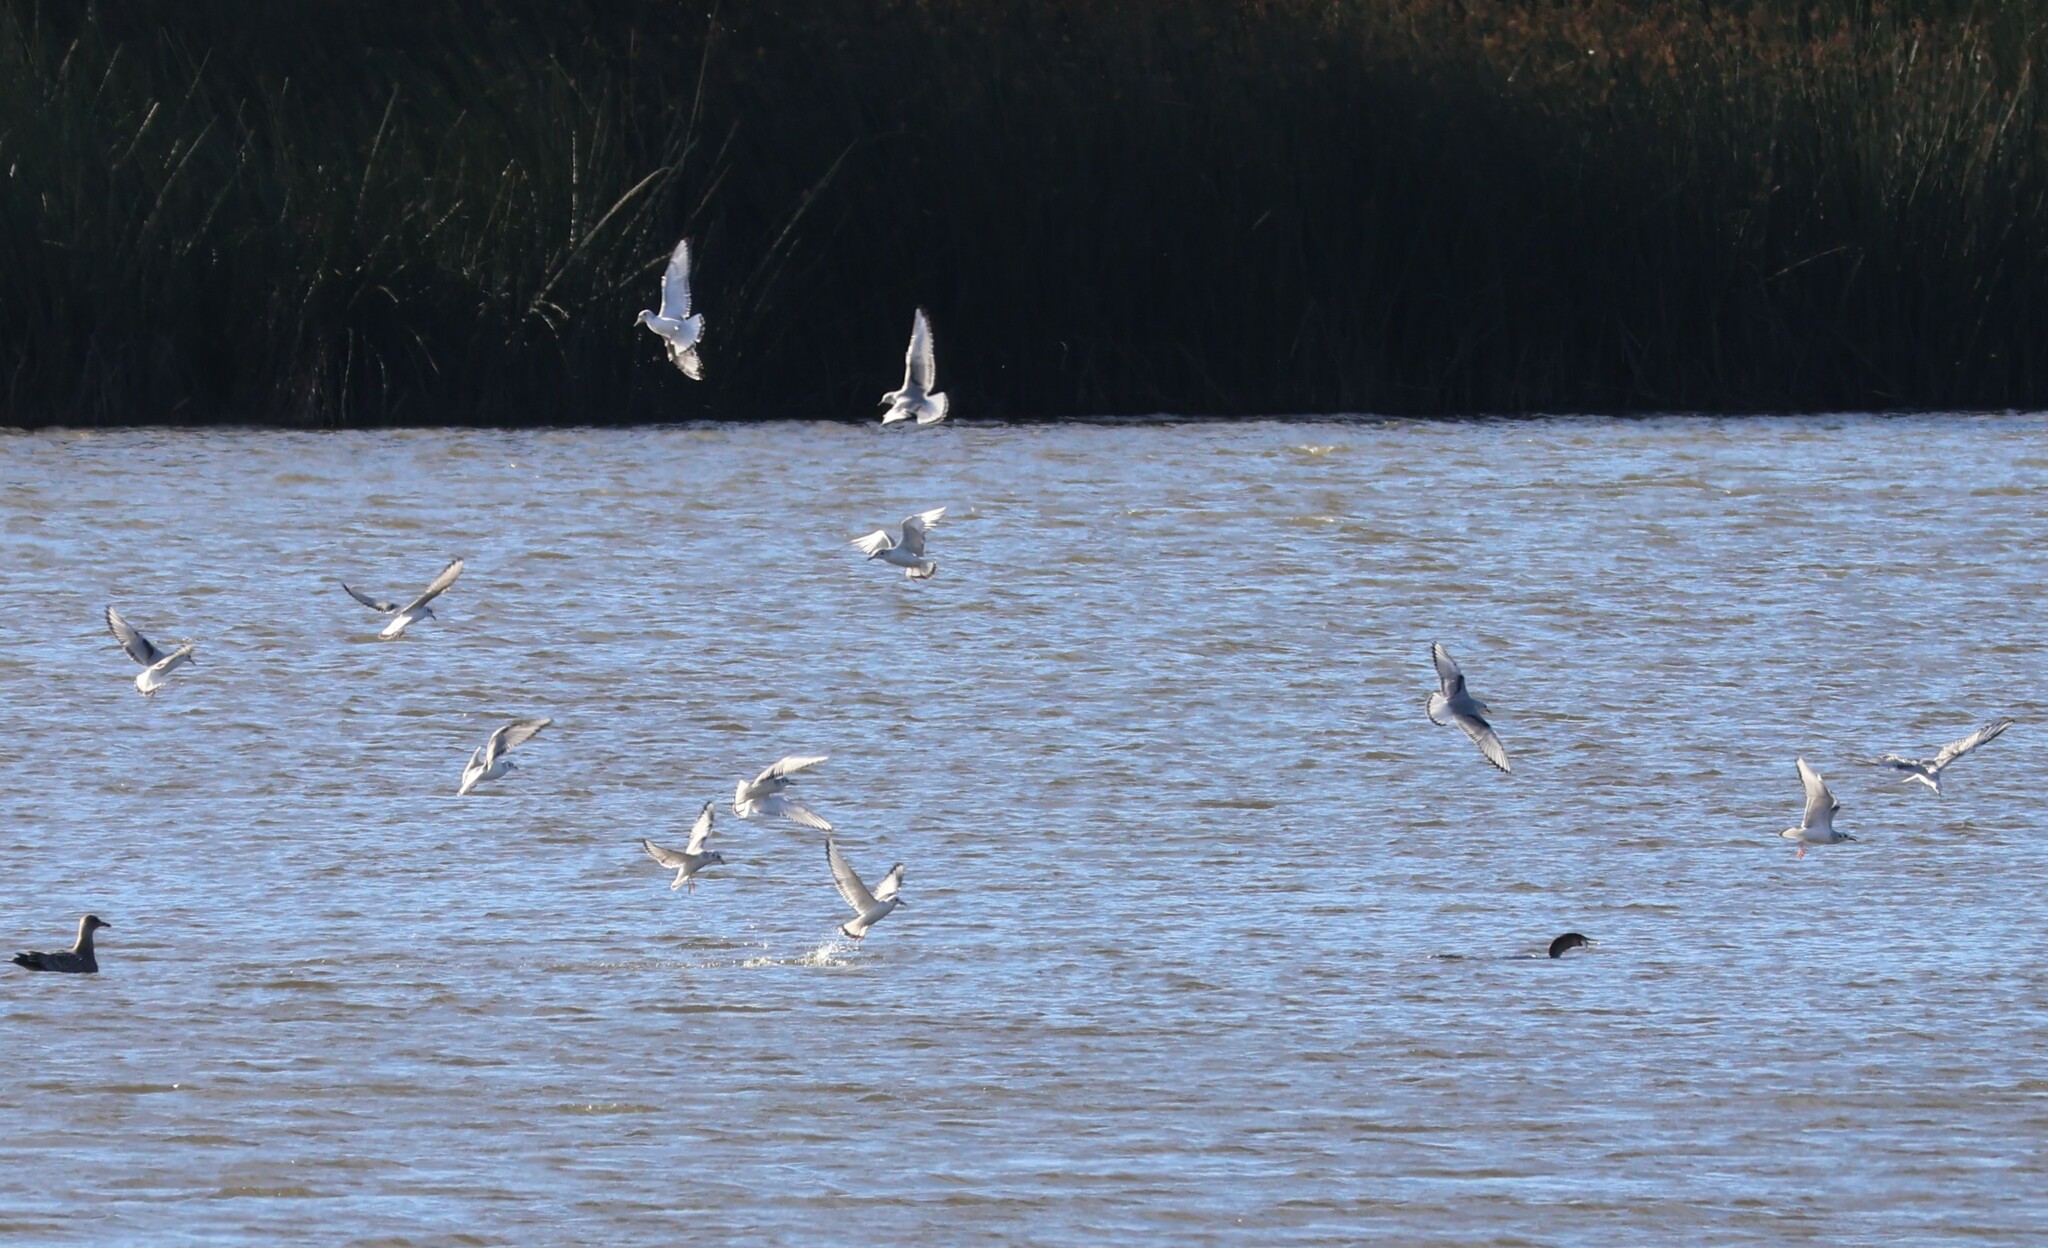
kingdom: Animalia
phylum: Chordata
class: Aves
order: Charadriiformes
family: Laridae
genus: Chroicocephalus
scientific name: Chroicocephalus philadelphia
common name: Bonaparte's gull
